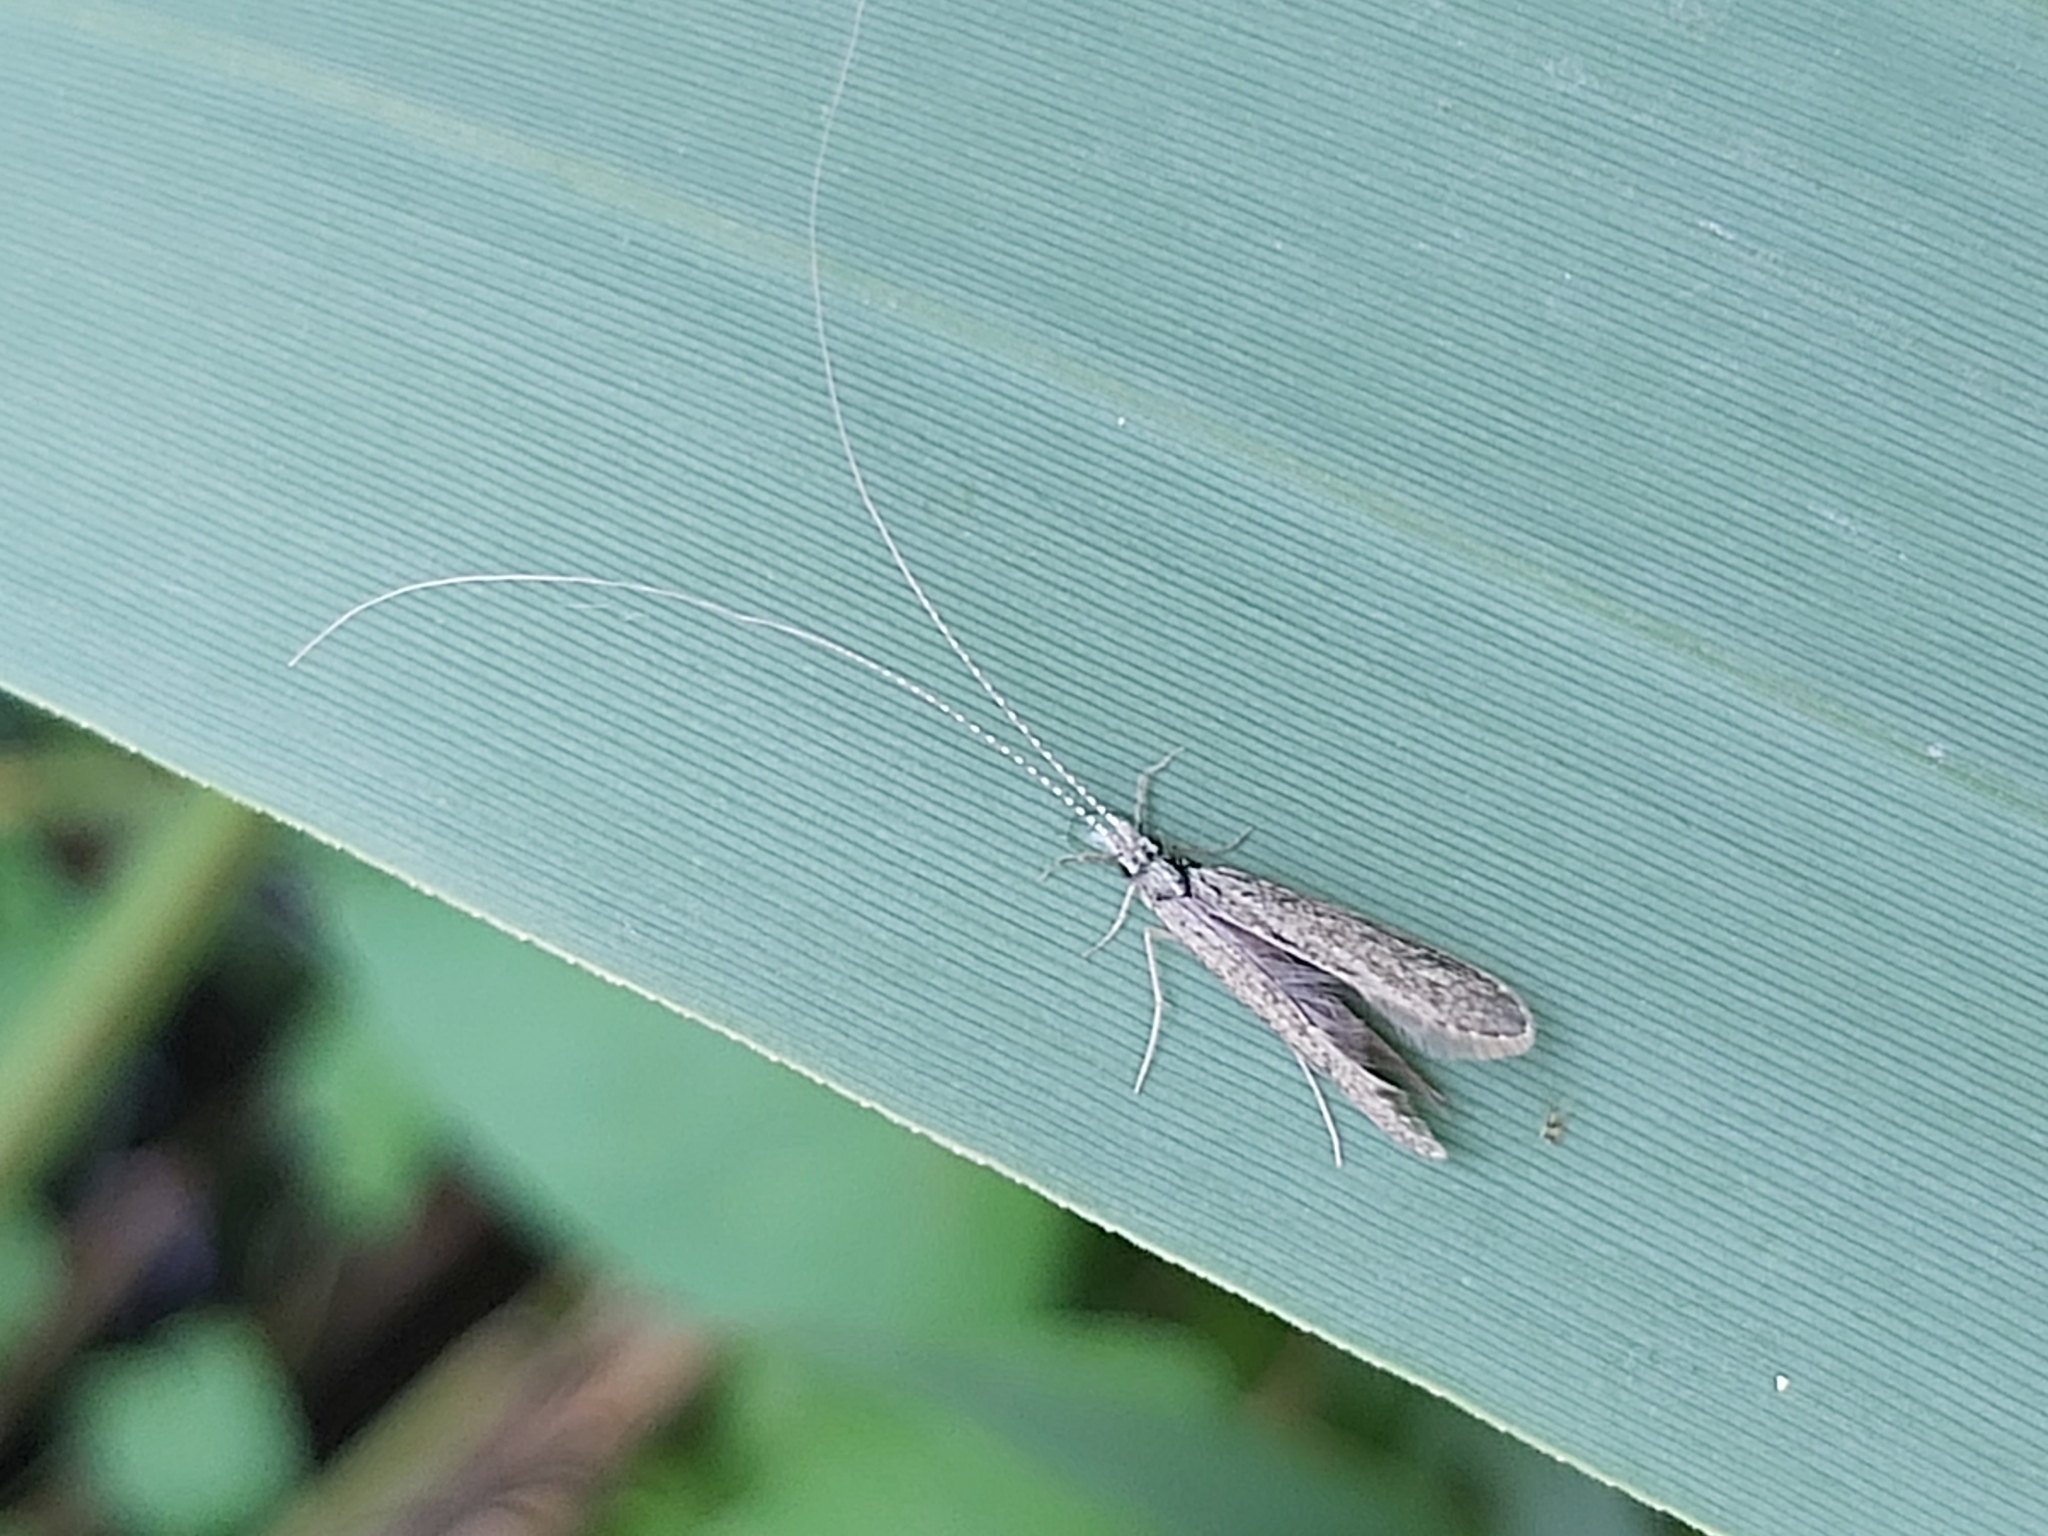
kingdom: Animalia
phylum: Arthropoda
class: Insecta
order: Trichoptera
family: Leptoceridae
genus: Leptocerus
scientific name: Leptocerus tineiformis
